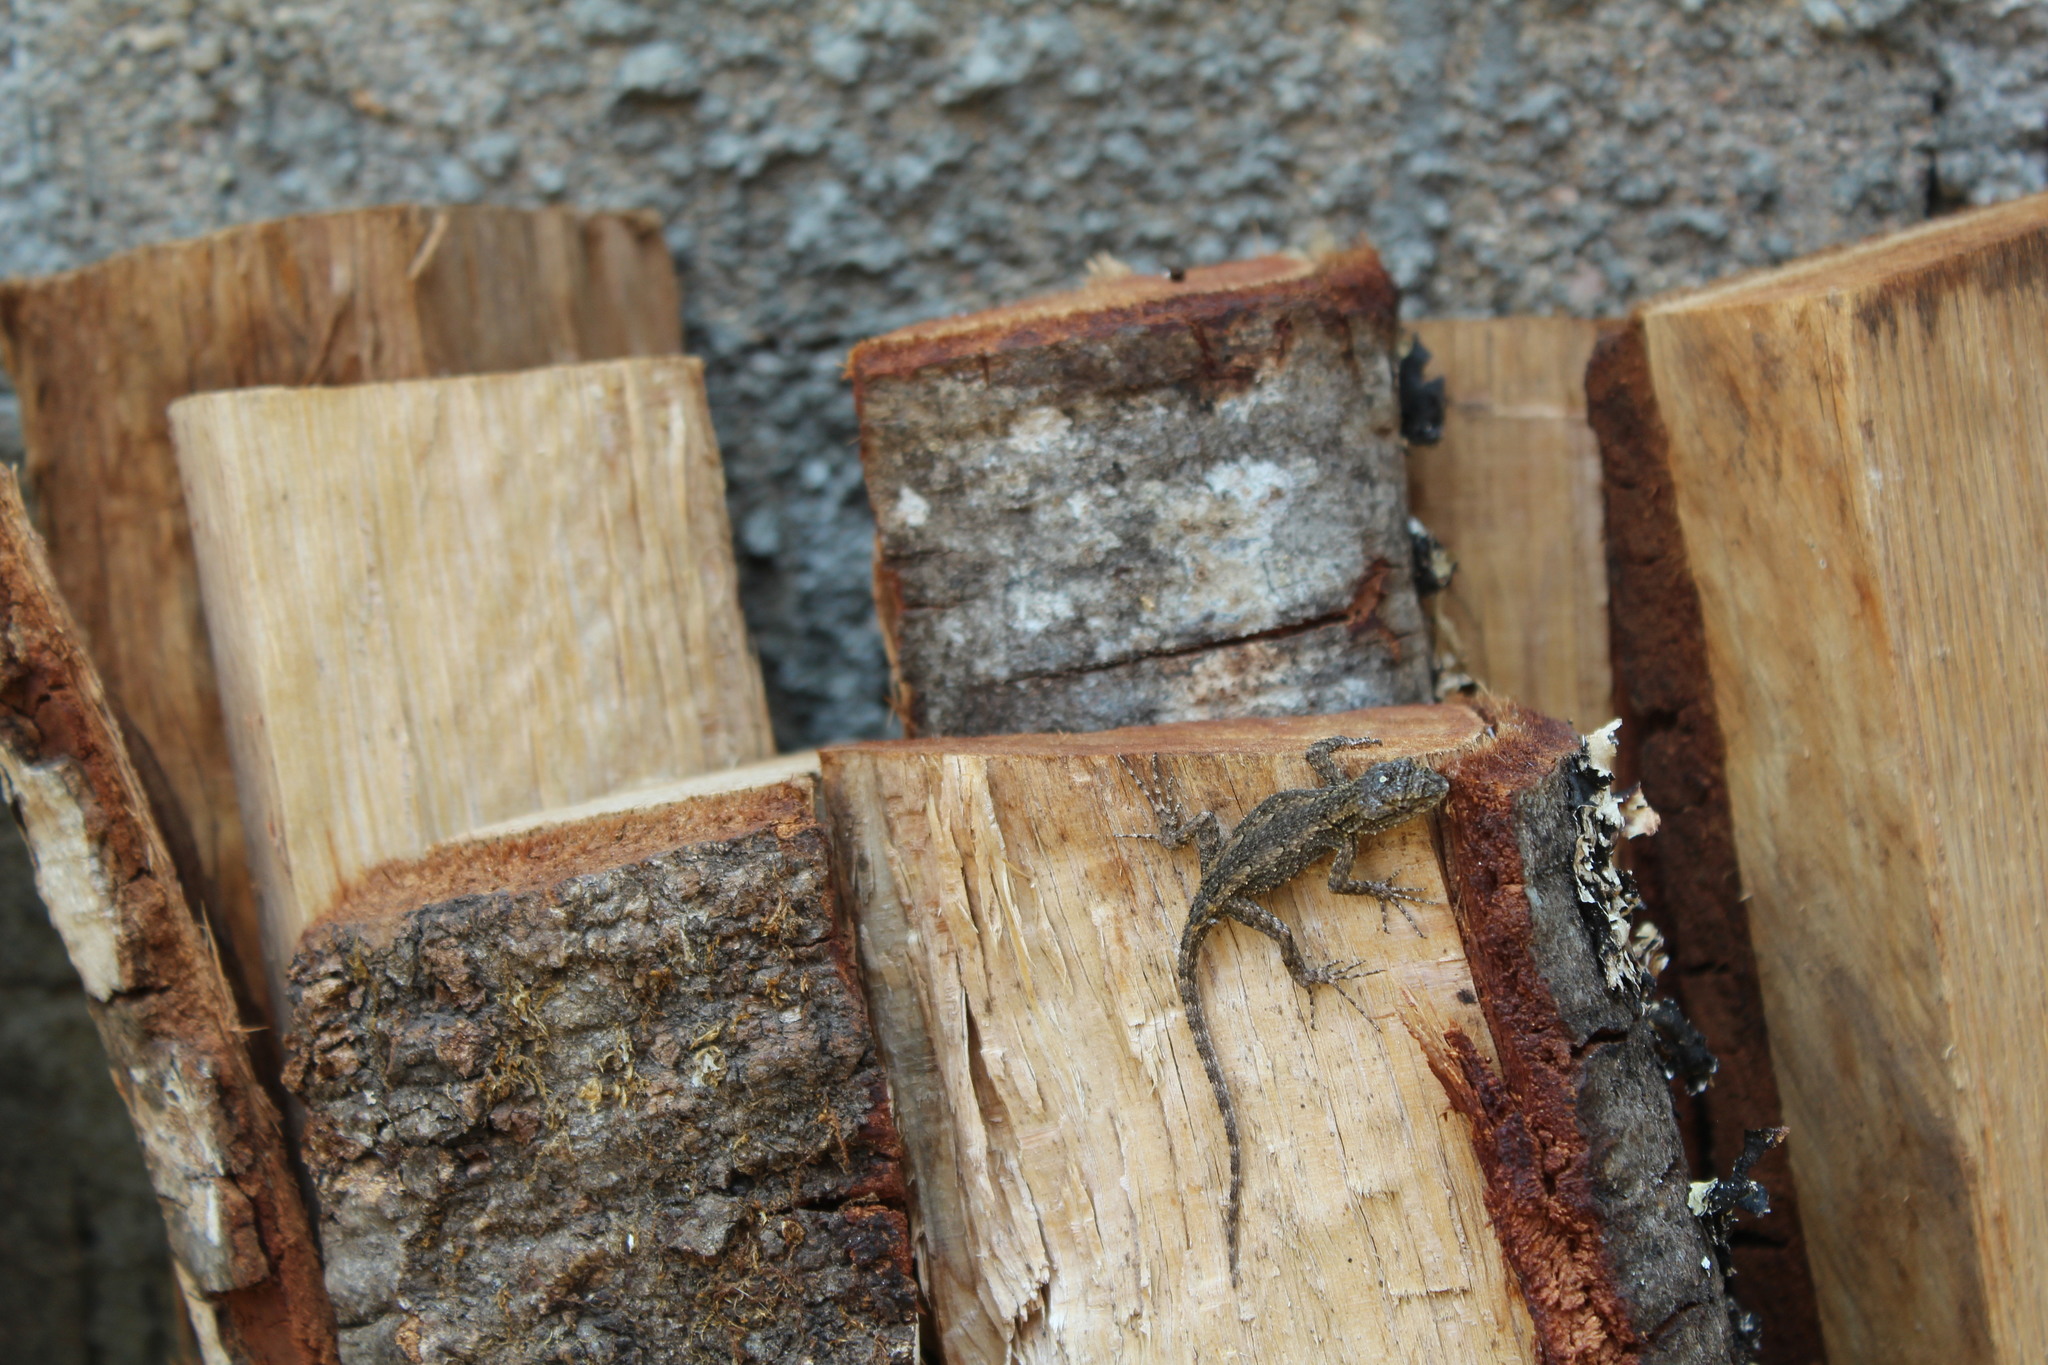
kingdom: Animalia
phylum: Chordata
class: Squamata
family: Phrynosomatidae
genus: Sceloporus
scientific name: Sceloporus grammicus
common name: Mesquite lizard
